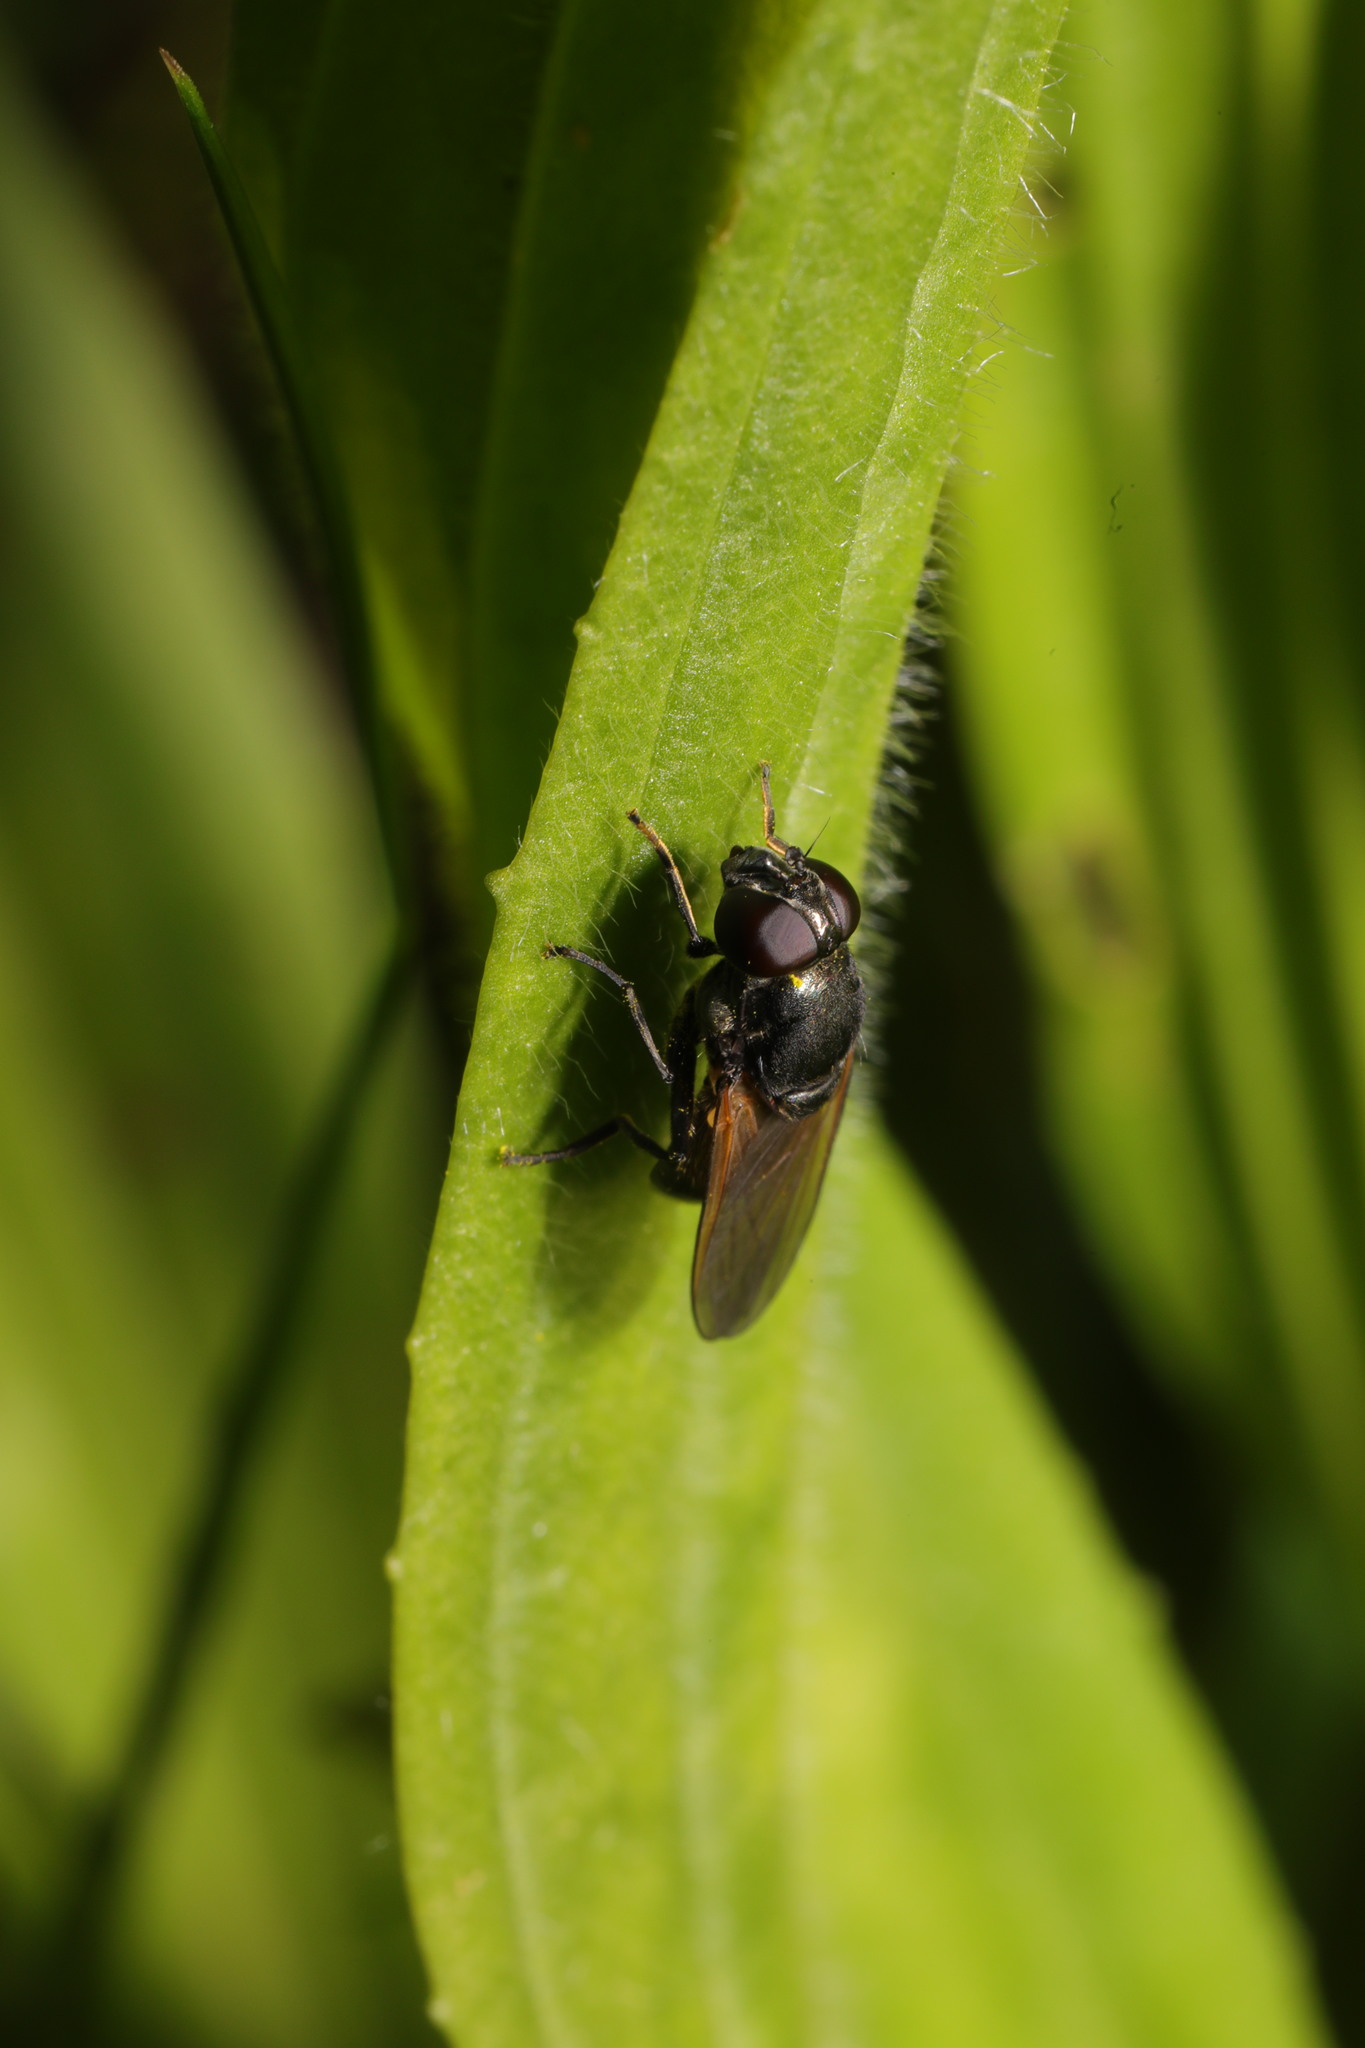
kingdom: Animalia
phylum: Arthropoda
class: Insecta
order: Diptera
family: Syrphidae
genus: Cheilosia
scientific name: Cheilosia impressa
